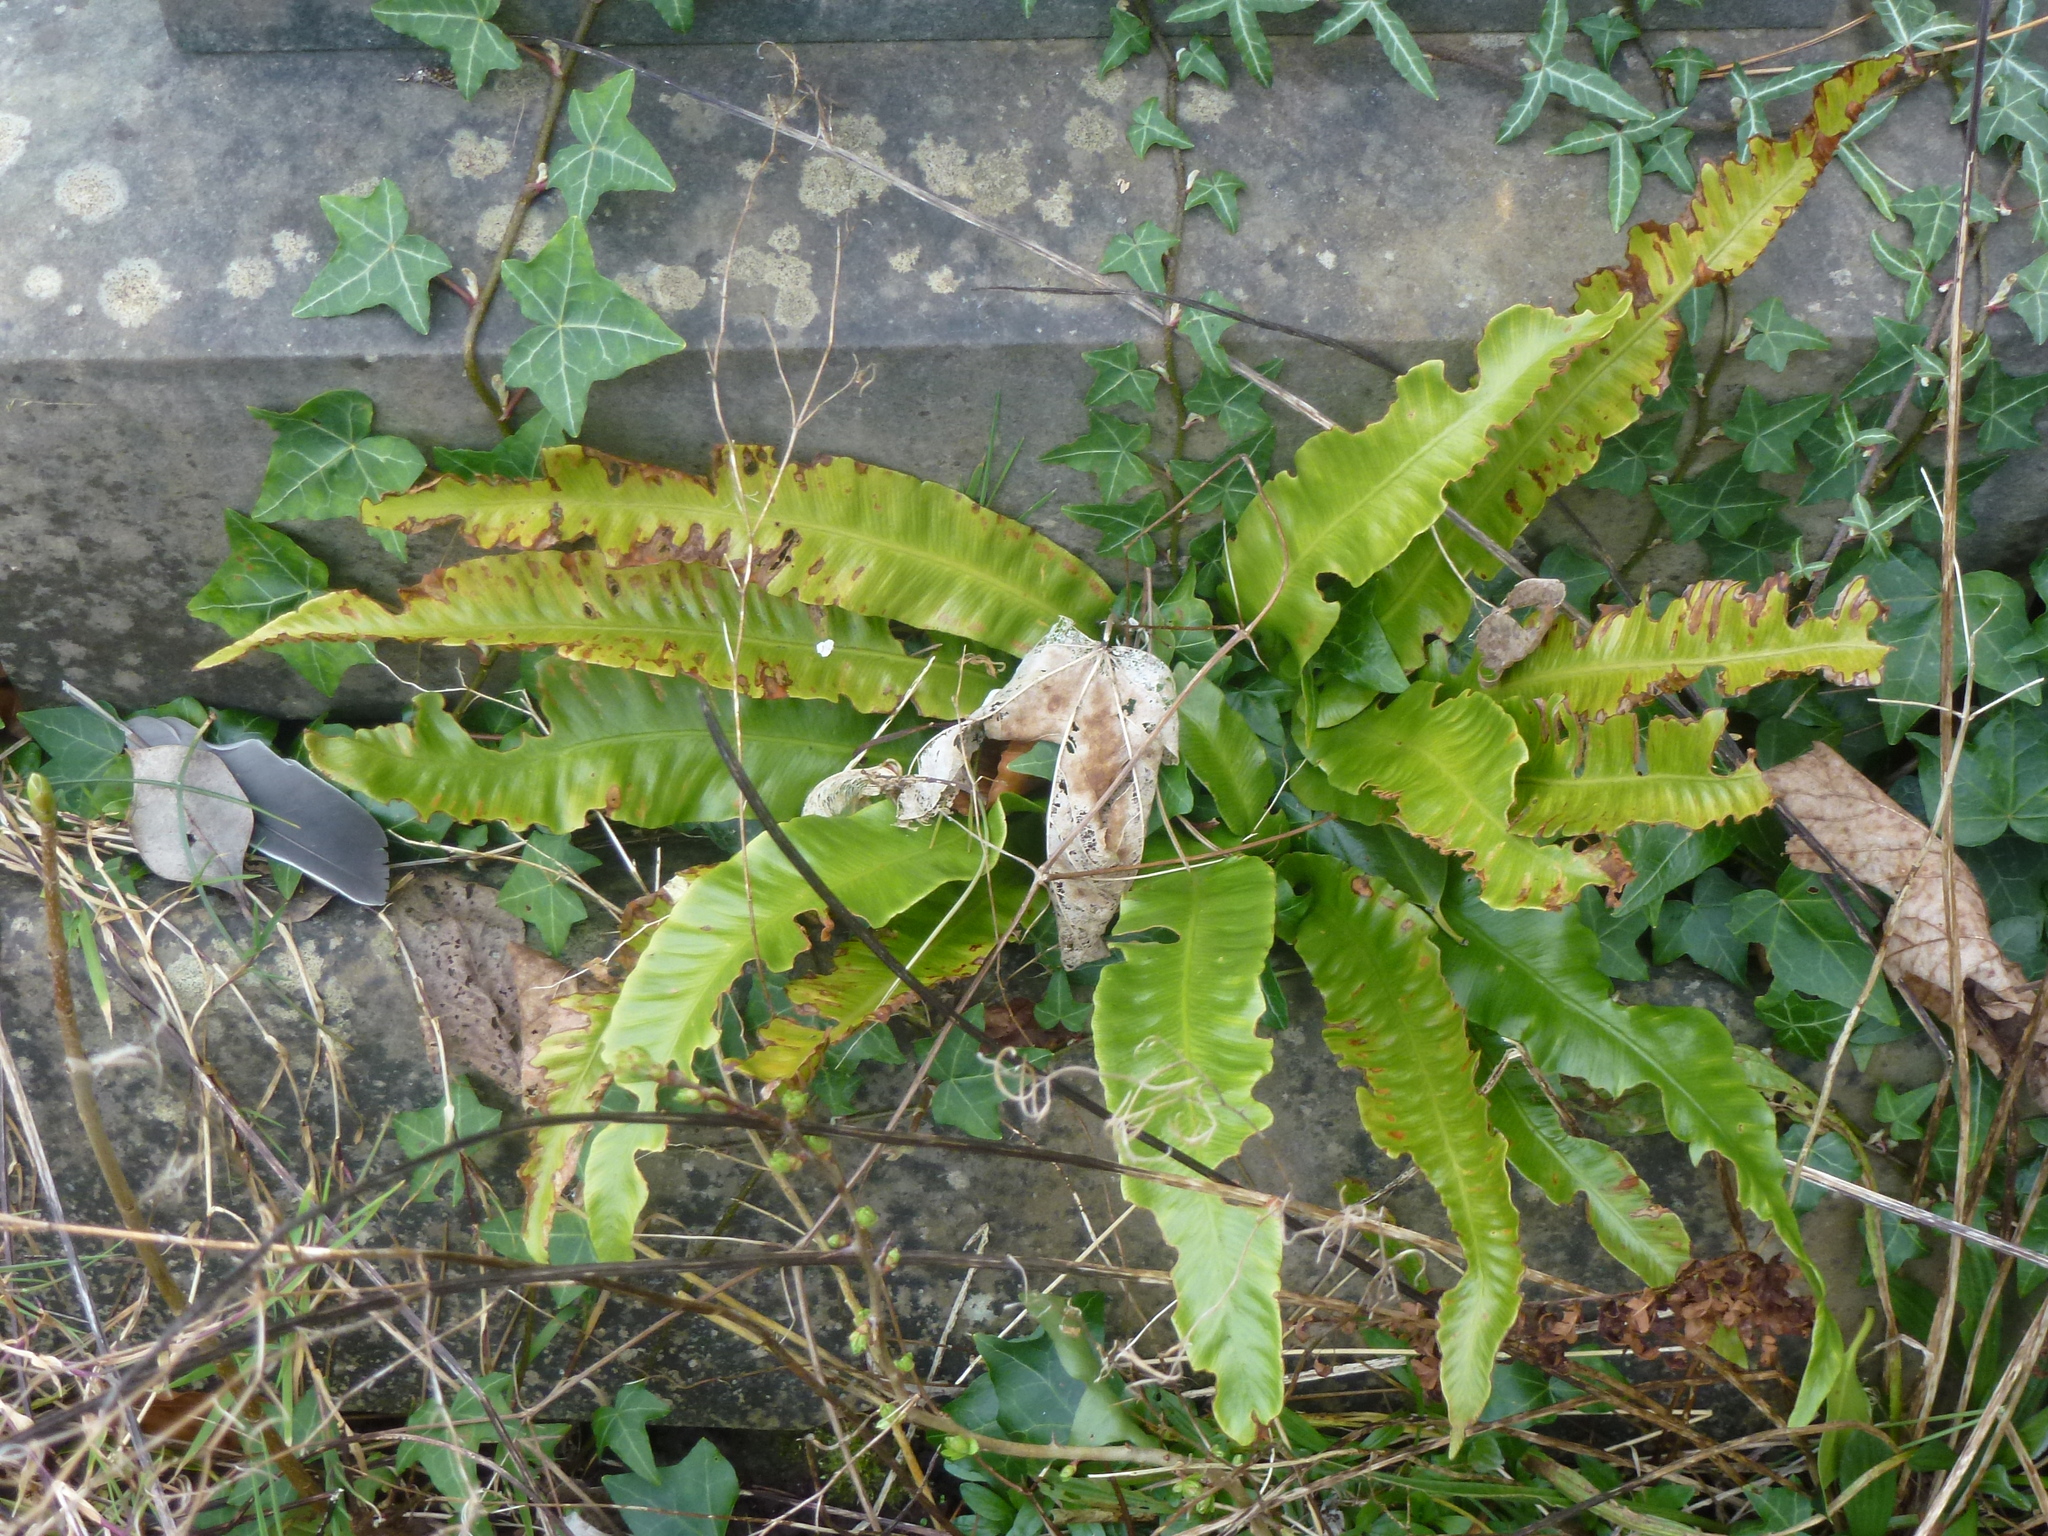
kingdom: Plantae
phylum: Tracheophyta
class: Polypodiopsida
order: Polypodiales
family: Aspleniaceae
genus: Asplenium
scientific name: Asplenium scolopendrium
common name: Hart's-tongue fern
